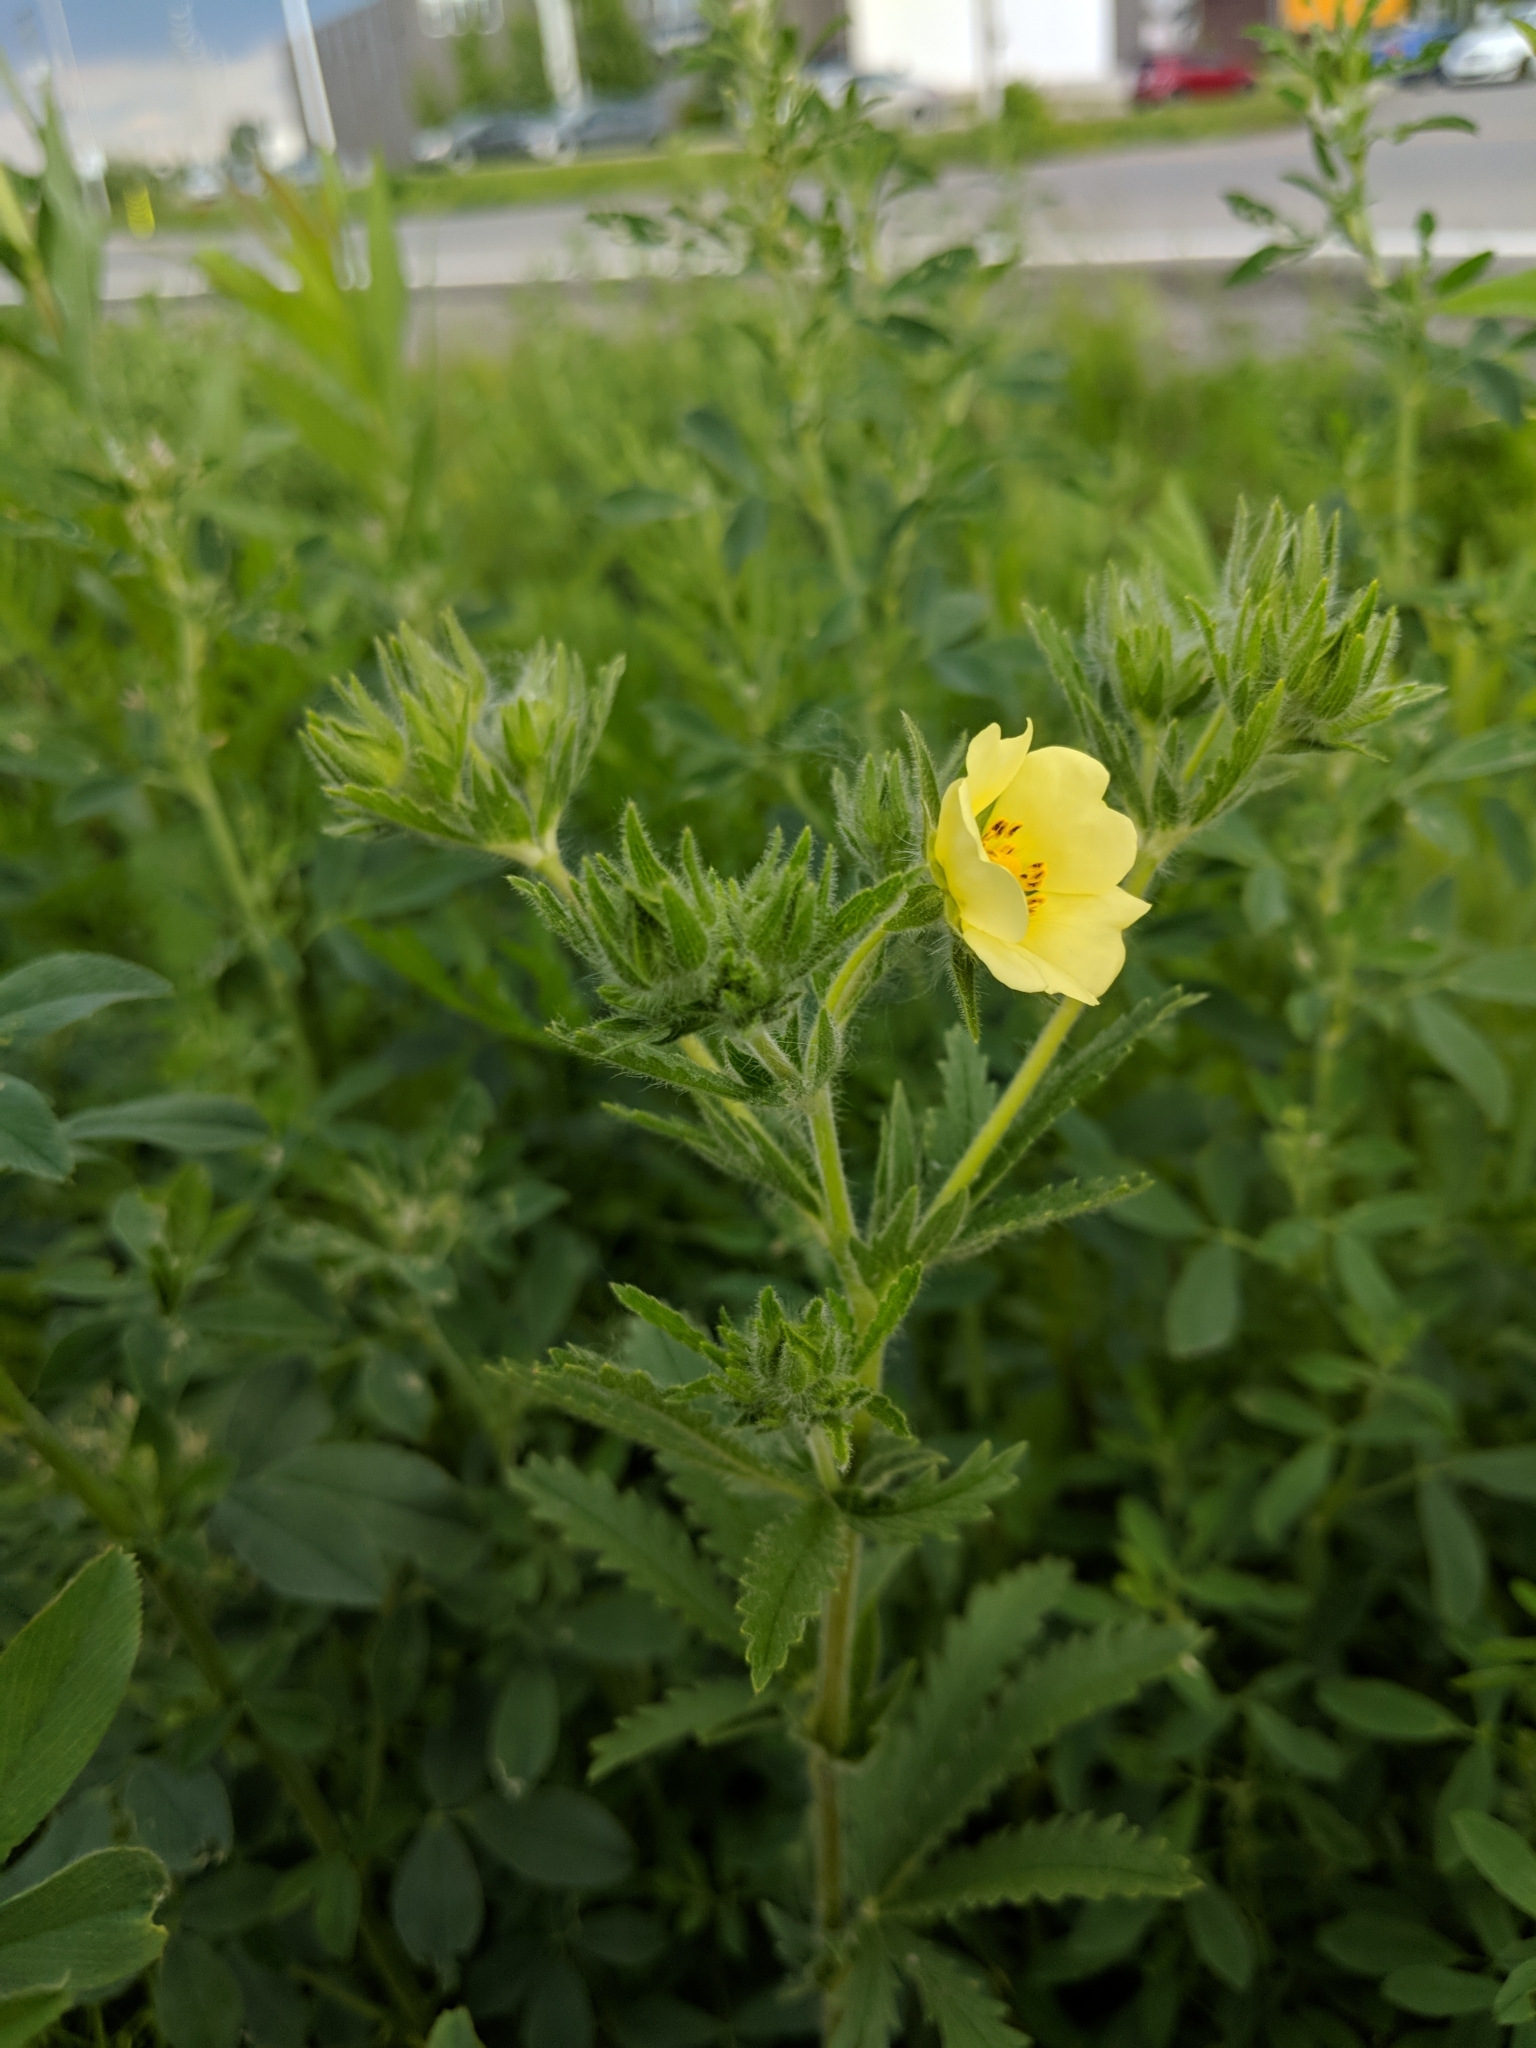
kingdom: Plantae
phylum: Tracheophyta
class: Magnoliopsida
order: Rosales
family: Rosaceae
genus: Potentilla
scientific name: Potentilla recta
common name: Sulphur cinquefoil
